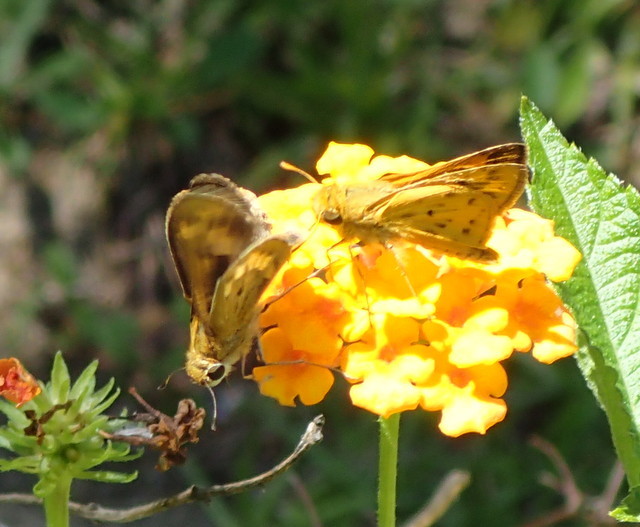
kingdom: Animalia
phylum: Arthropoda
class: Insecta
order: Lepidoptera
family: Hesperiidae
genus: Hylephila
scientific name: Hylephila phyleus
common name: Fiery skipper
